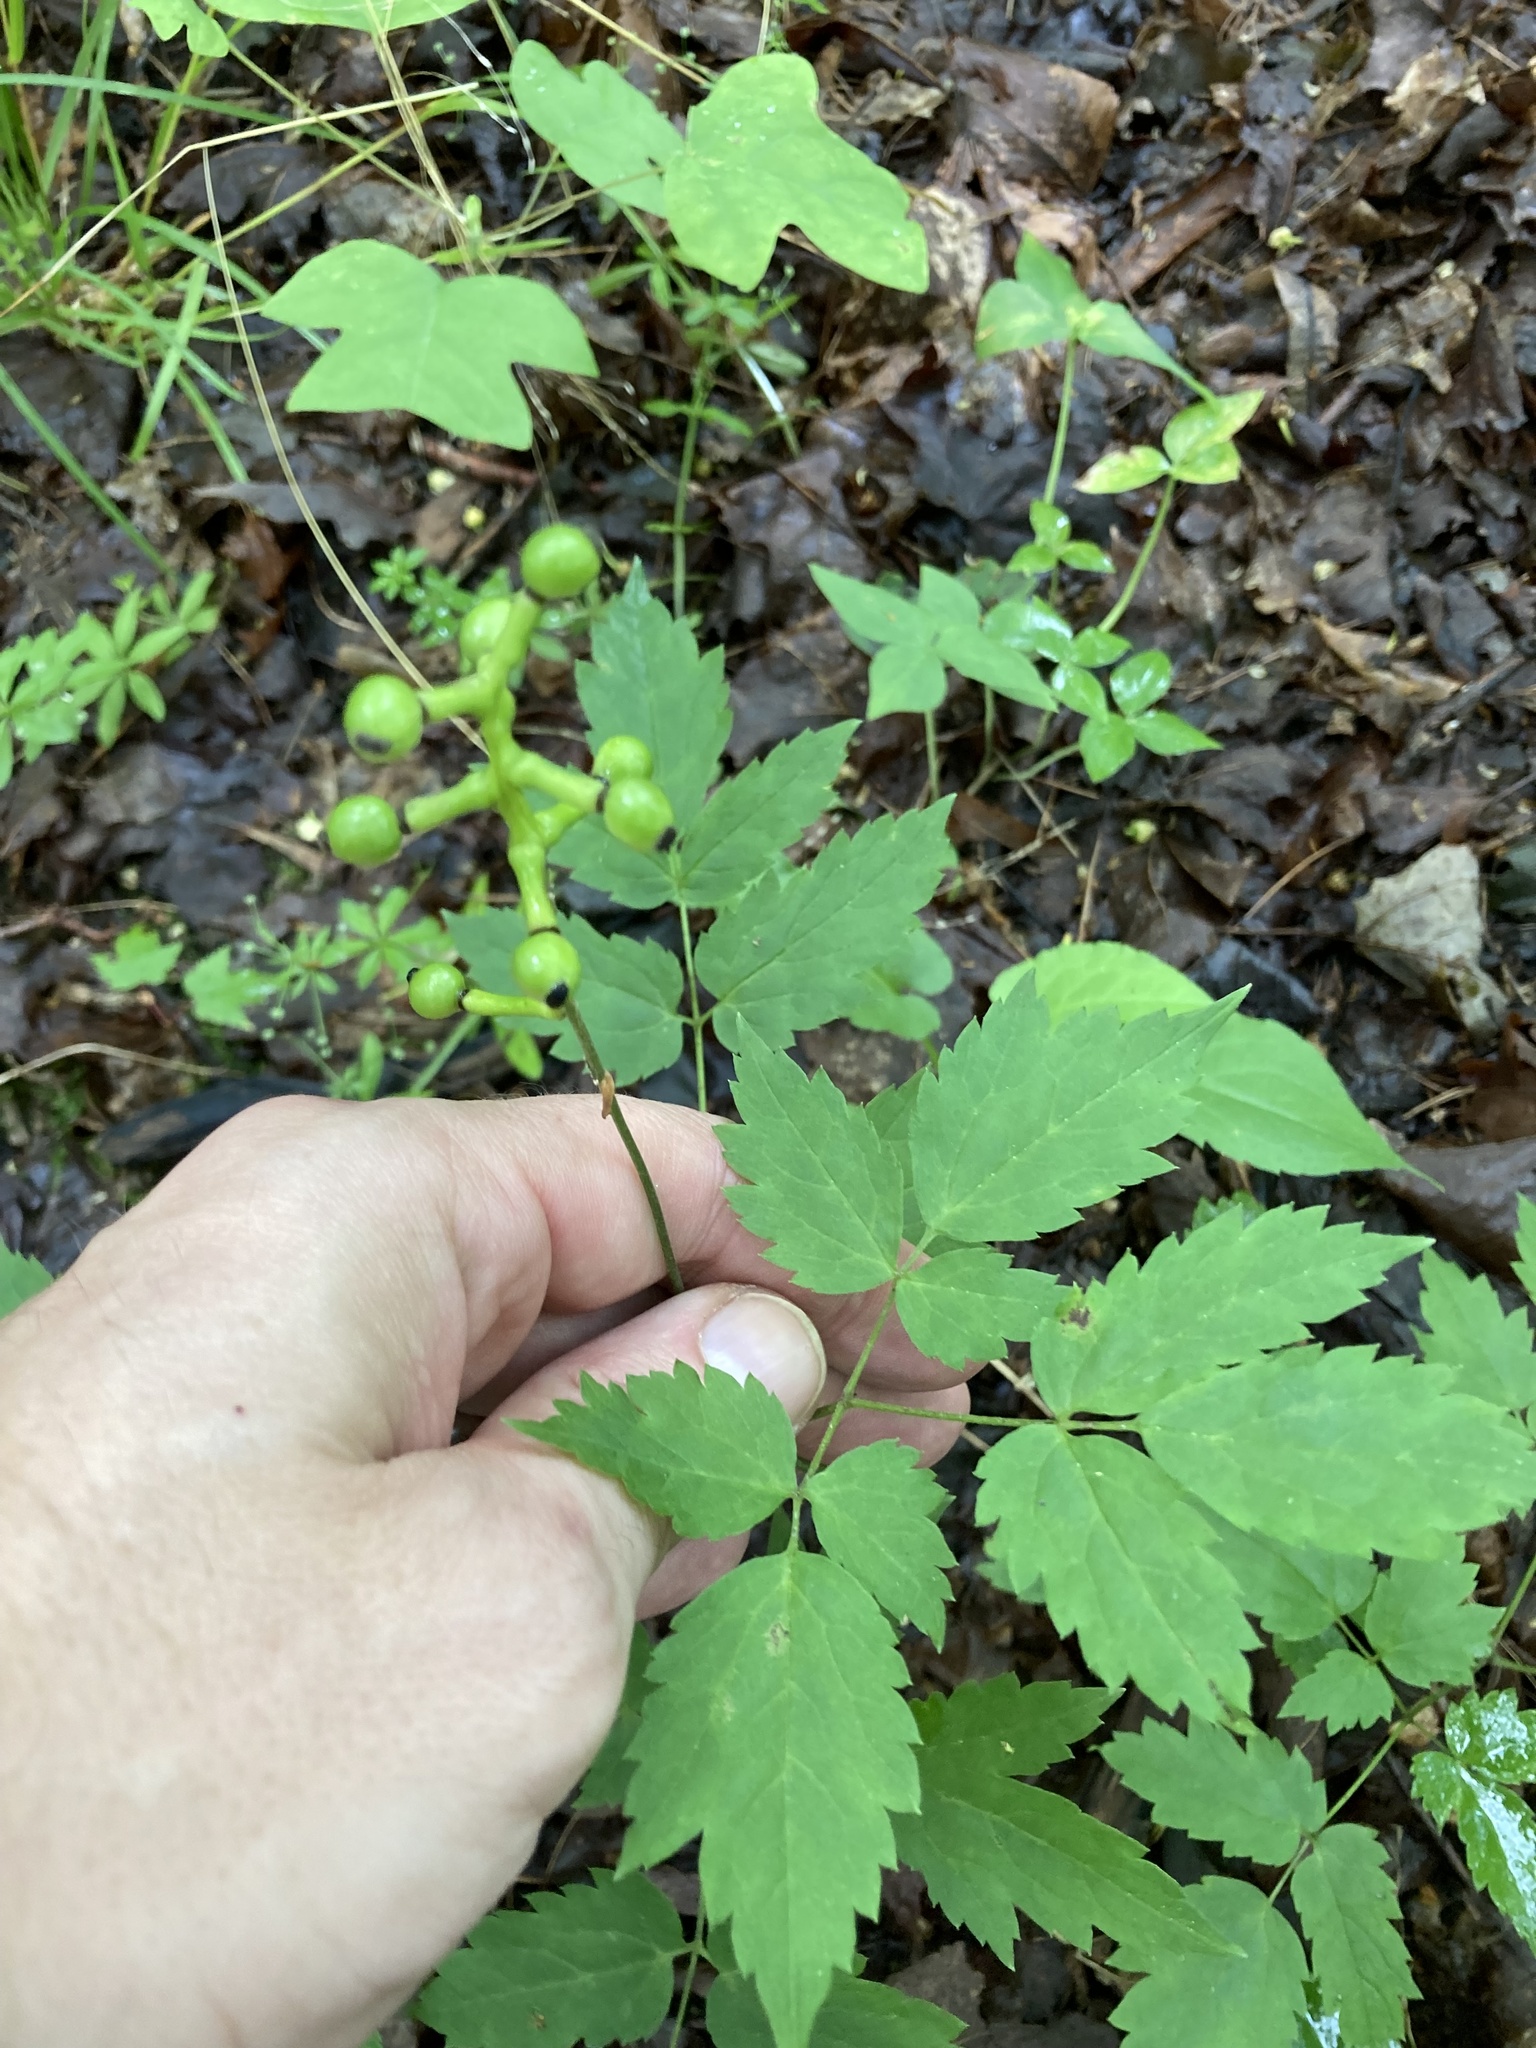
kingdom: Plantae
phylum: Tracheophyta
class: Magnoliopsida
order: Ranunculales
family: Ranunculaceae
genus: Actaea
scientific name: Actaea pachypoda
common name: Doll's-eyes
